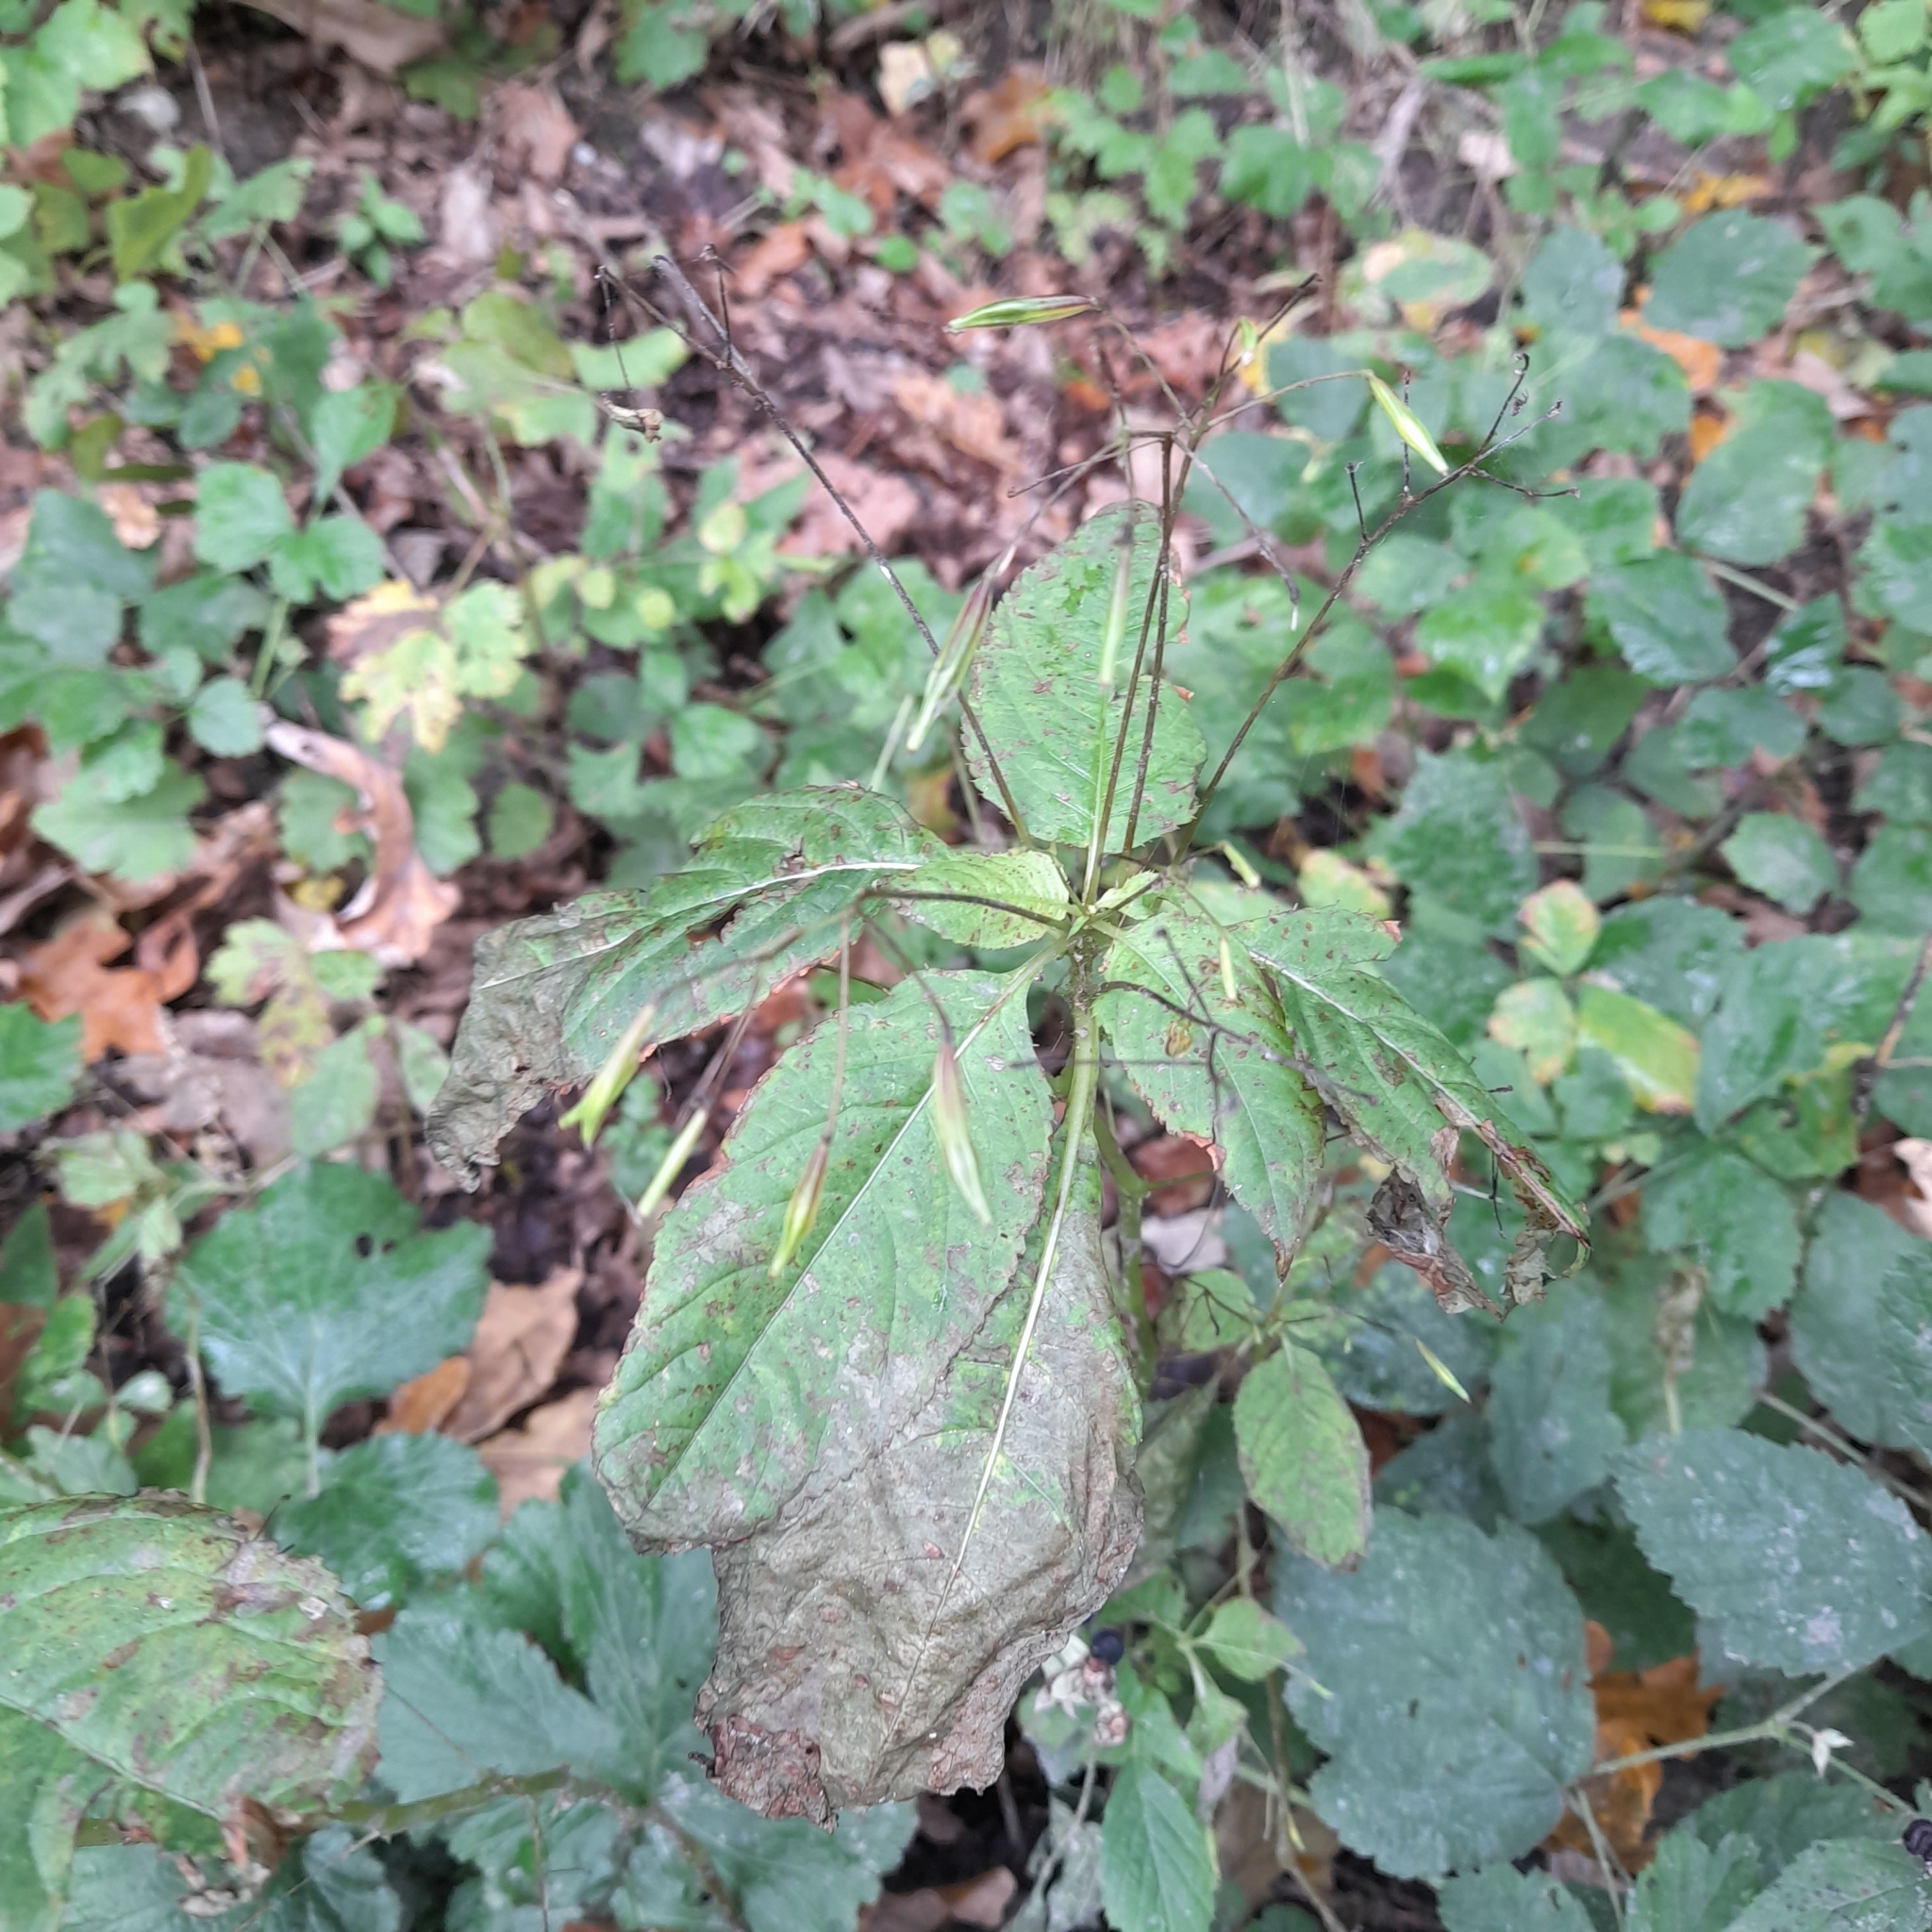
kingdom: Plantae
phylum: Tracheophyta
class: Magnoliopsida
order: Ericales
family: Balsaminaceae
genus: Impatiens
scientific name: Impatiens parviflora
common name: Small balsam
